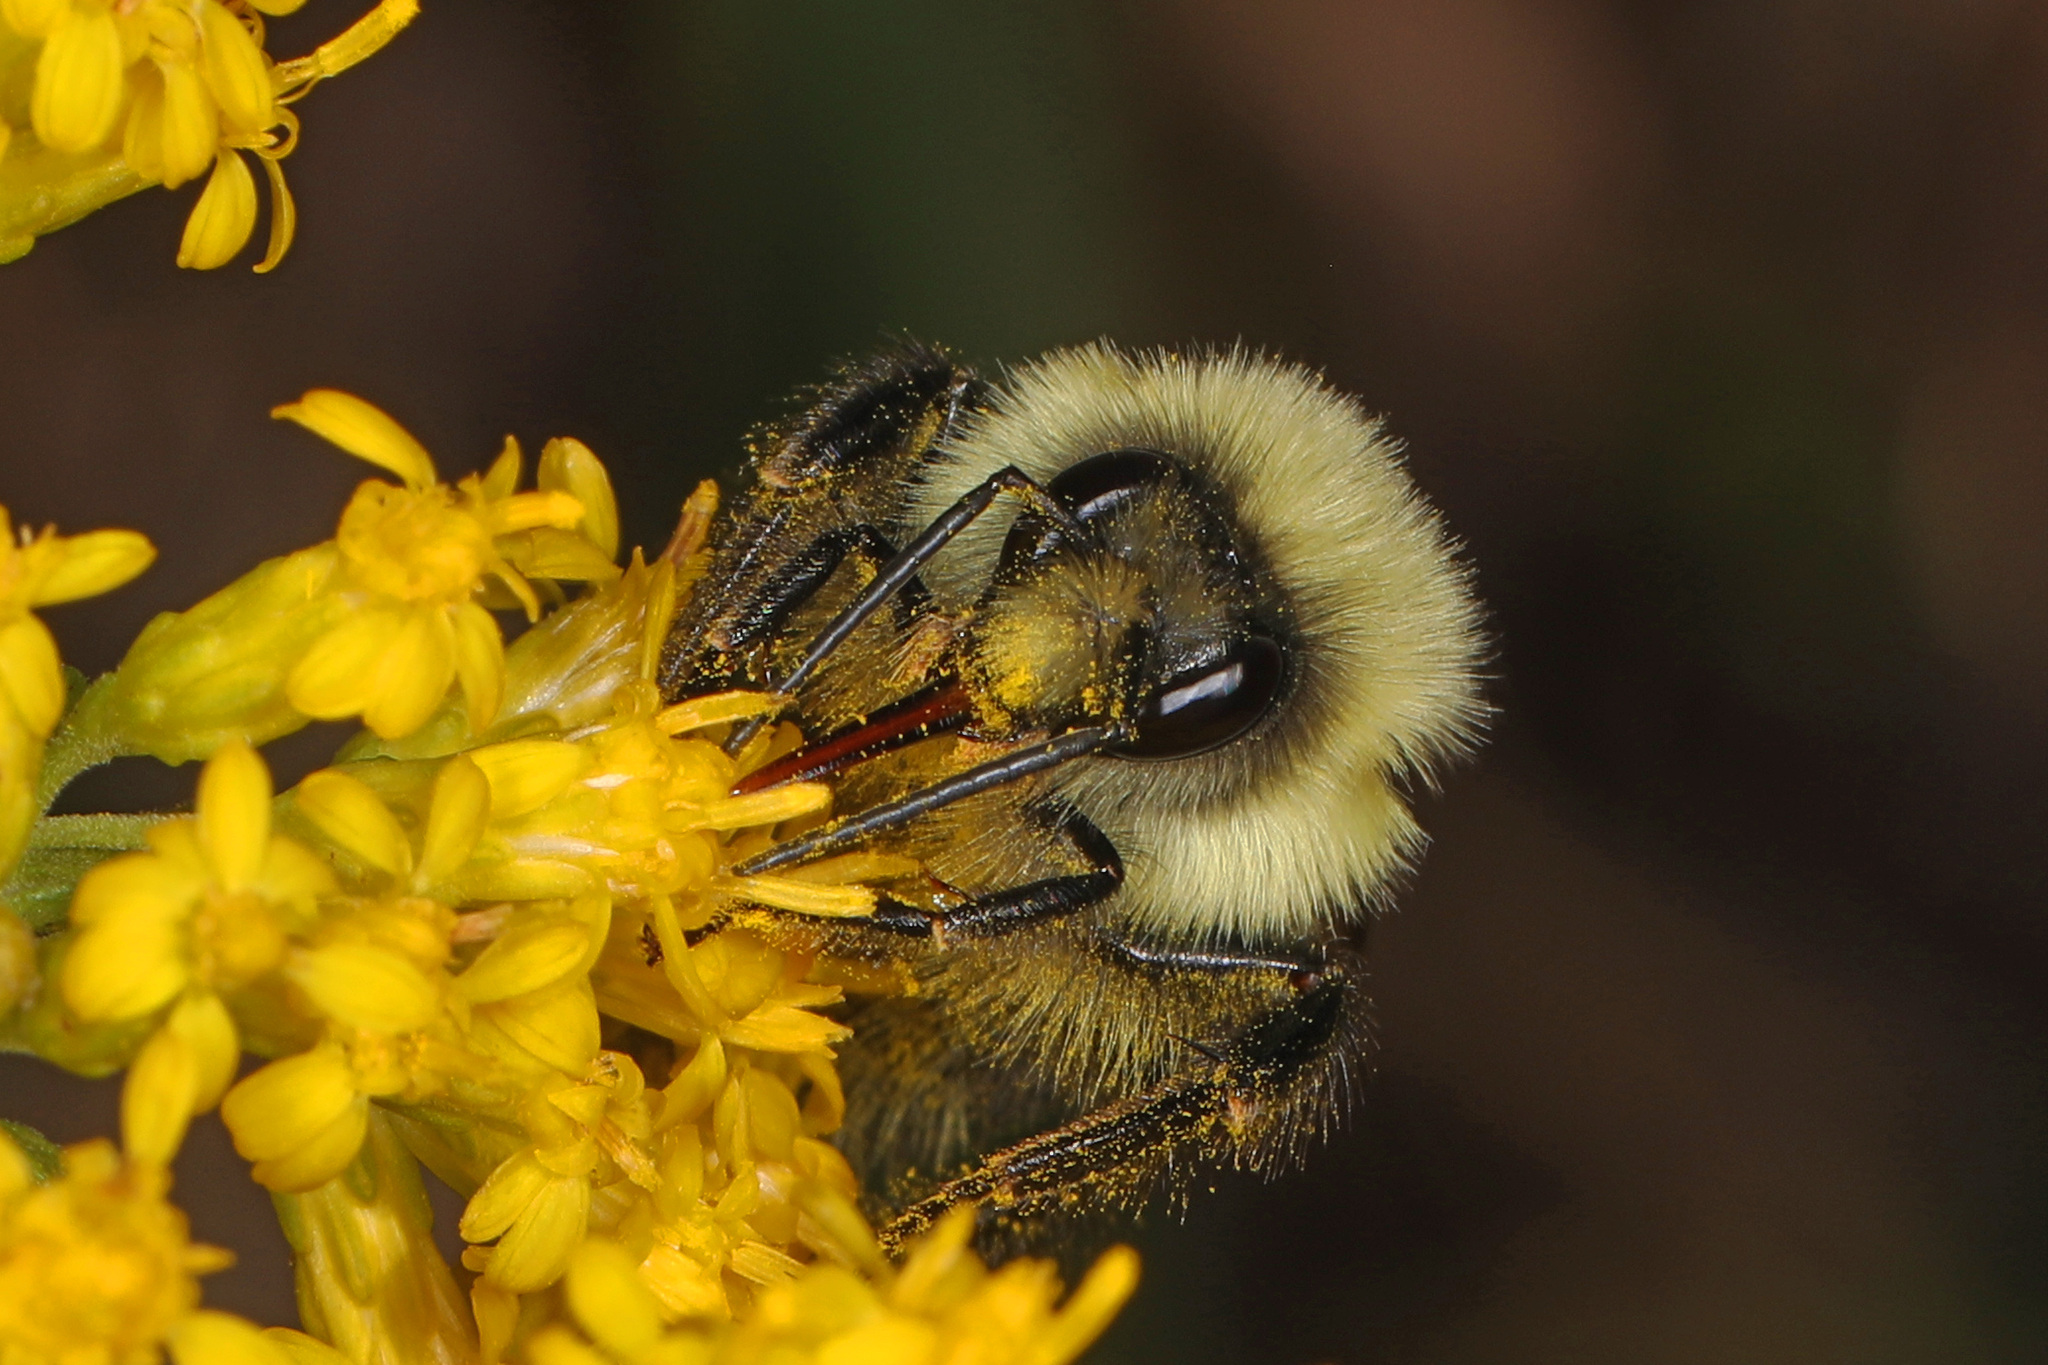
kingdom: Animalia
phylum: Arthropoda
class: Insecta
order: Hymenoptera
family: Apidae
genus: Bombus
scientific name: Bombus impatiens
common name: Common eastern bumble bee
